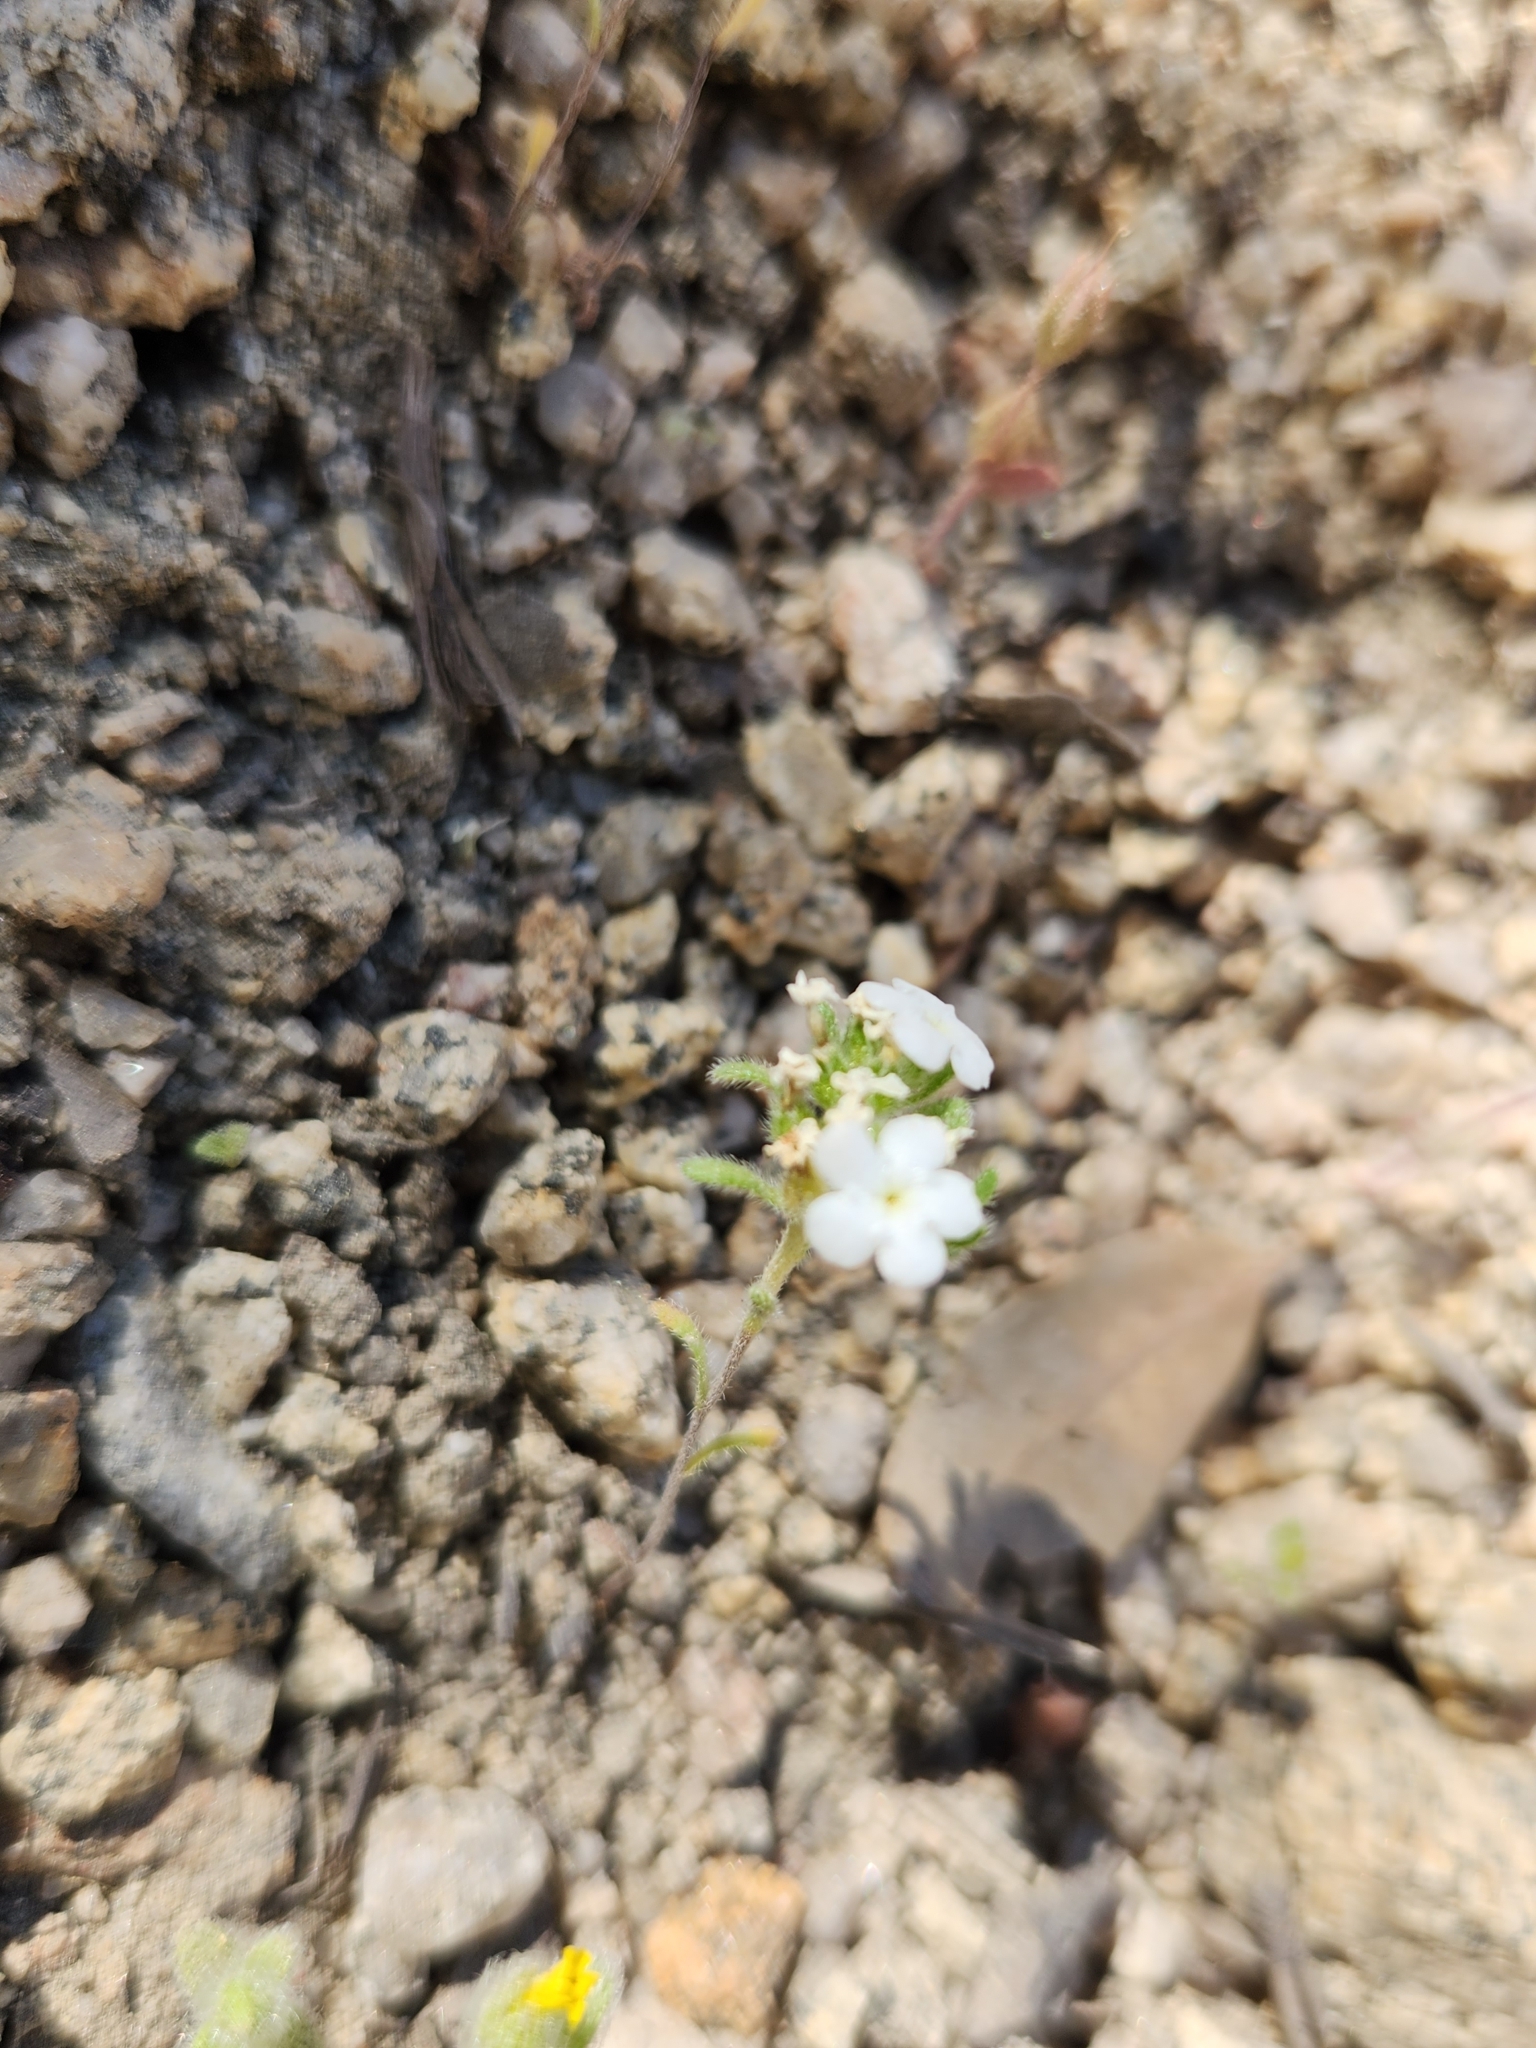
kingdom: Plantae
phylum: Tracheophyta
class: Magnoliopsida
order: Boraginales
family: Boraginaceae
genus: Eremocarya
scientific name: Eremocarya lepida
